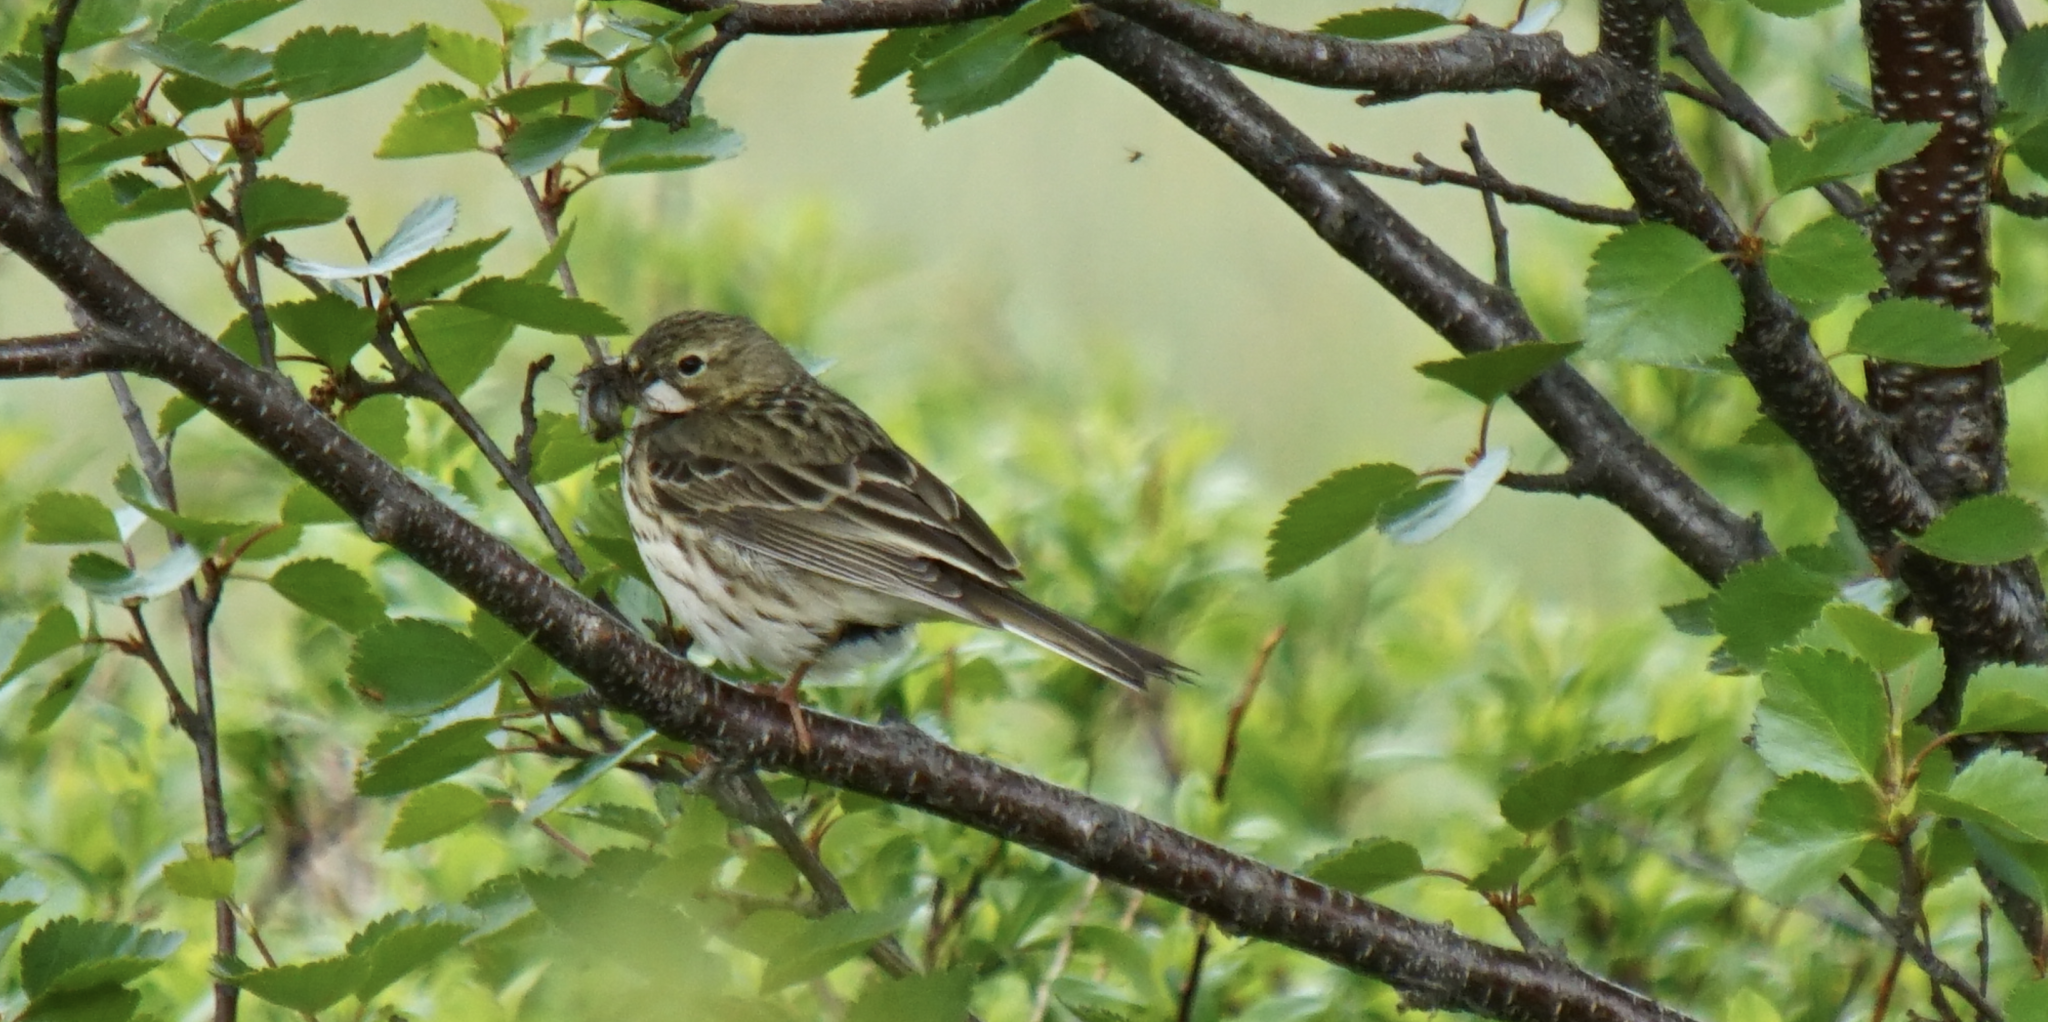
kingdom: Animalia
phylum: Chordata
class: Aves
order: Passeriformes
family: Motacillidae
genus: Anthus
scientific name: Anthus pratensis
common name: Meadow pipit
